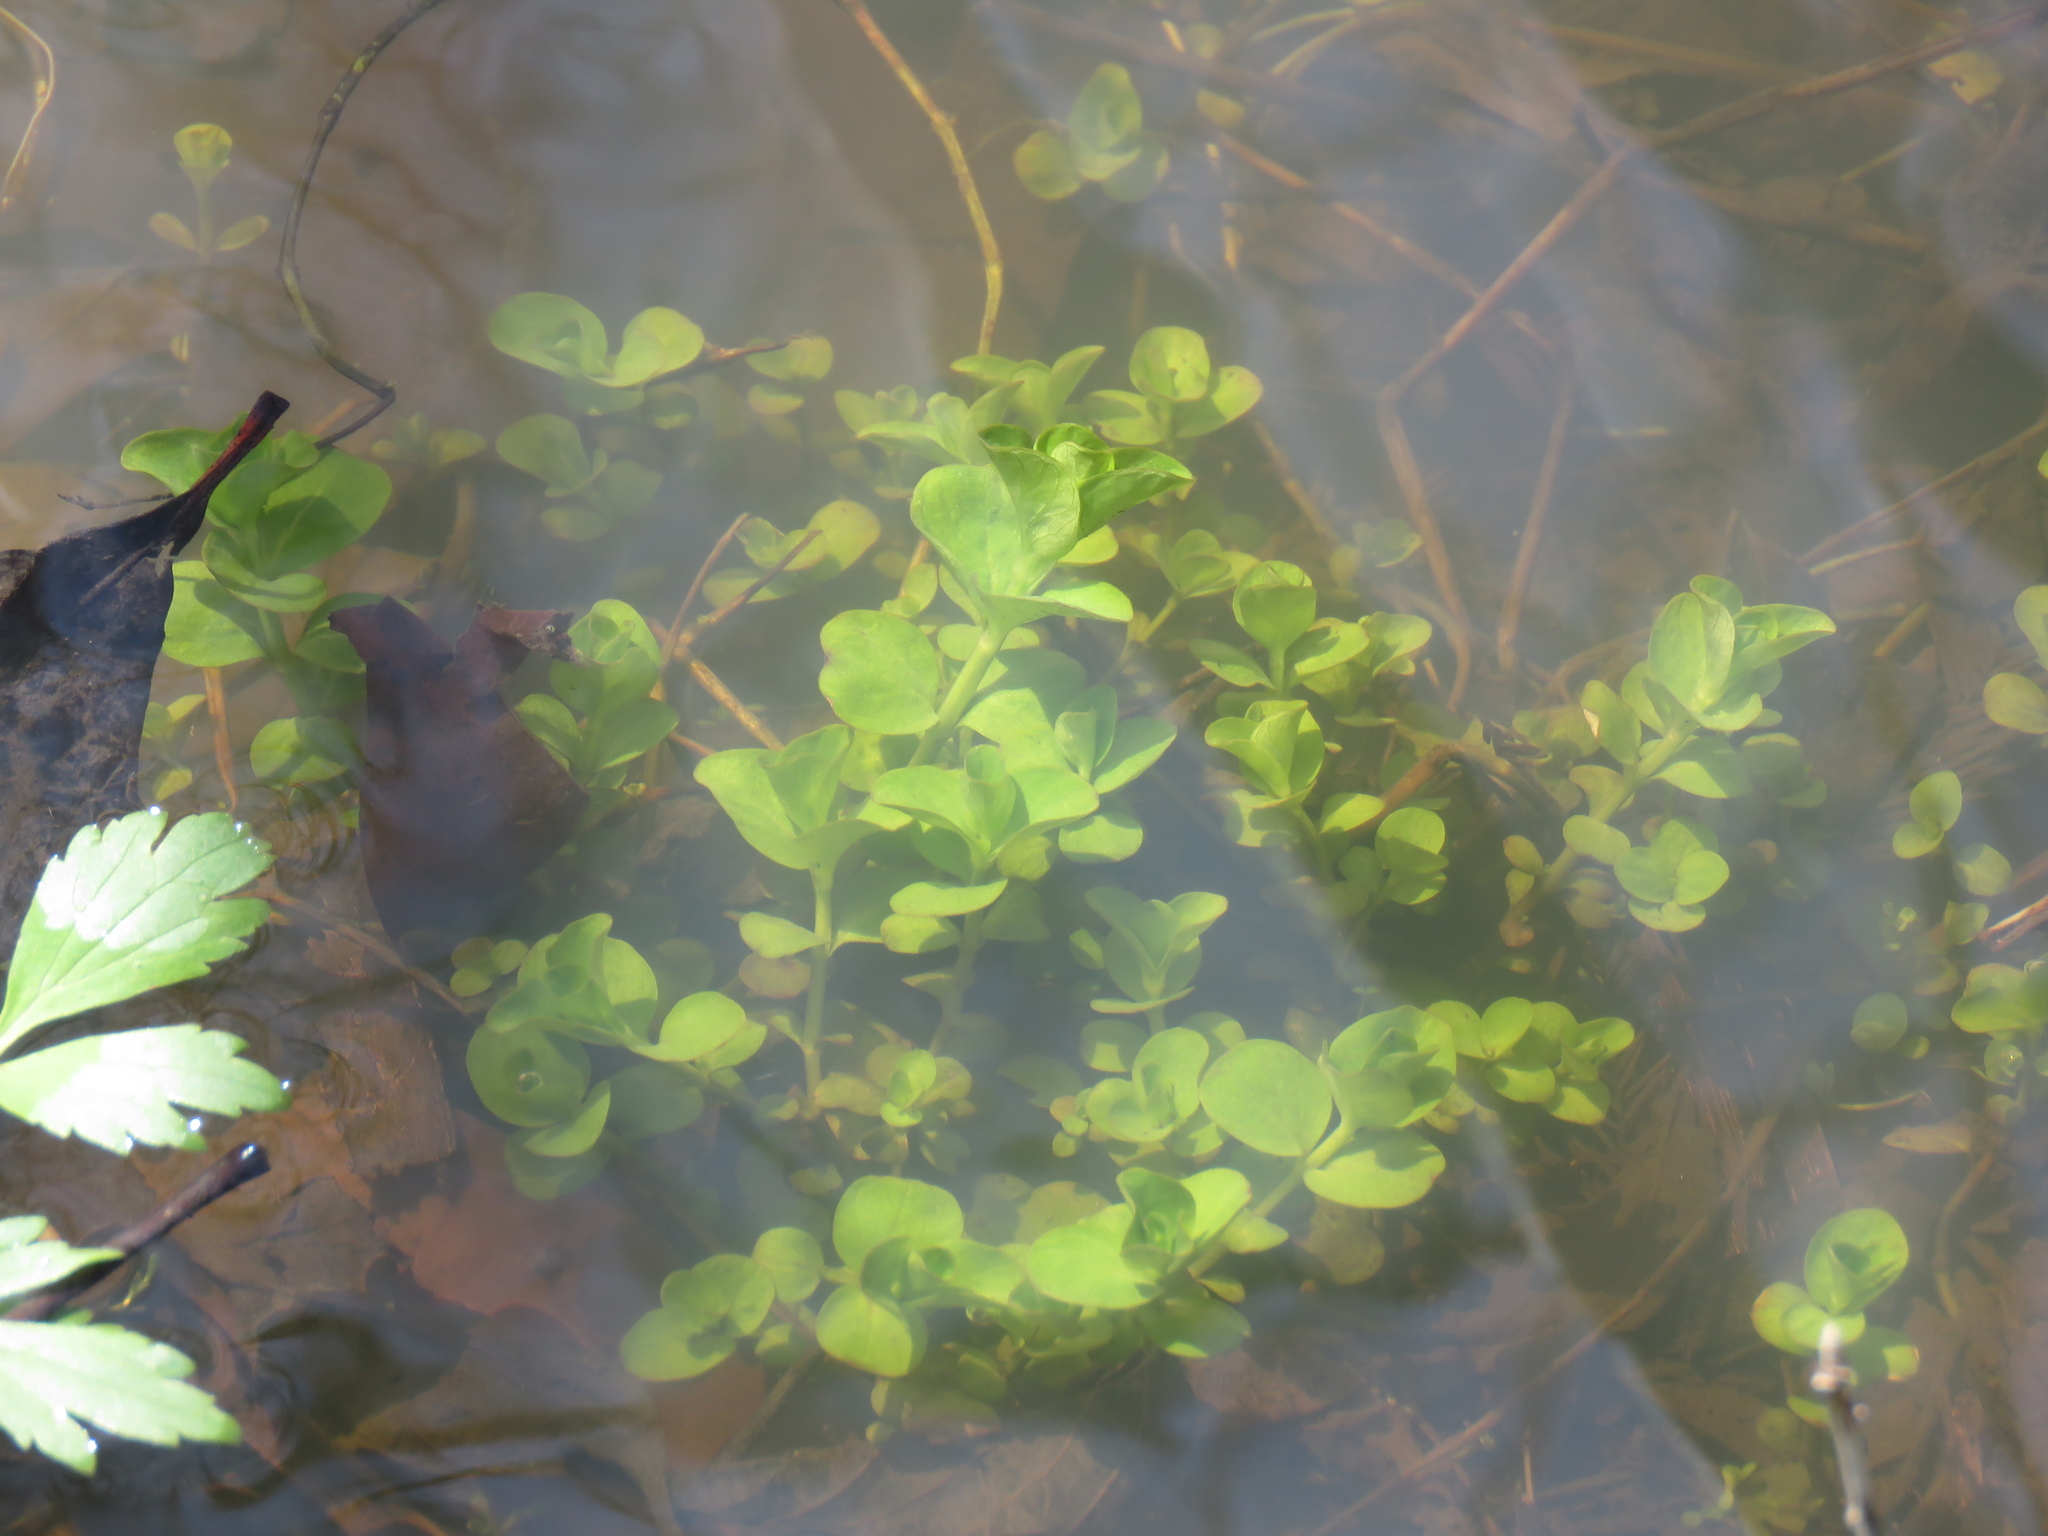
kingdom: Plantae
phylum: Tracheophyta
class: Magnoliopsida
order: Ericales
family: Primulaceae
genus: Lysimachia
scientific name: Lysimachia nummularia
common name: Moneywort
